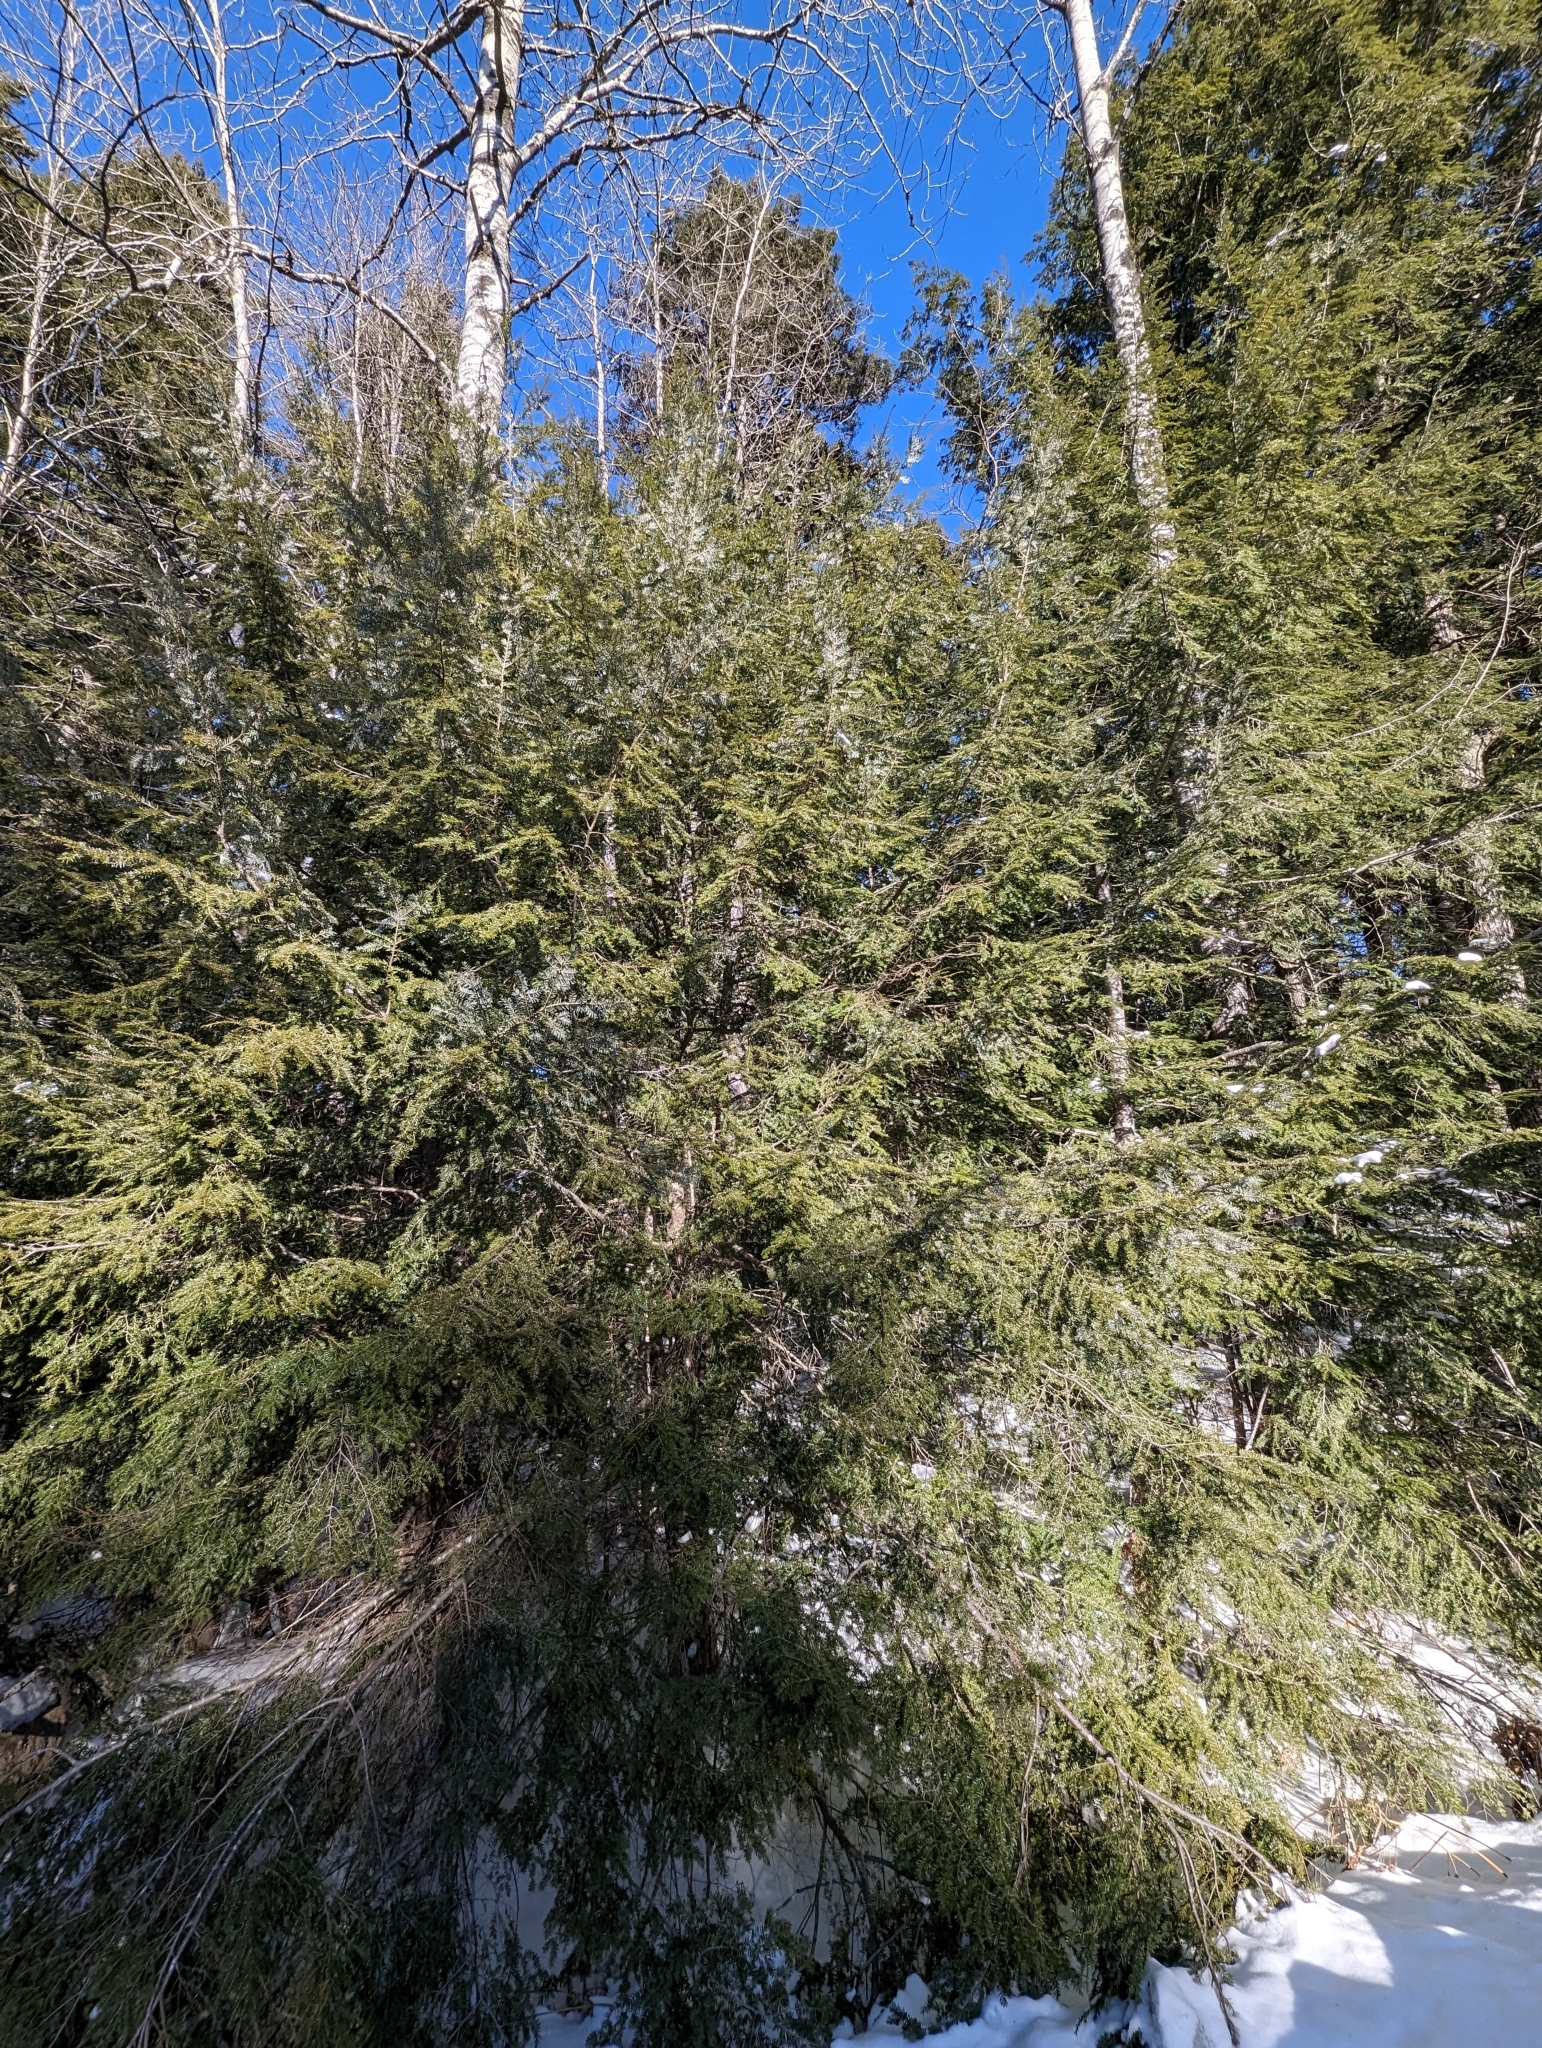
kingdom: Plantae
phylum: Tracheophyta
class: Pinopsida
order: Pinales
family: Pinaceae
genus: Tsuga
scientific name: Tsuga canadensis
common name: Eastern hemlock
